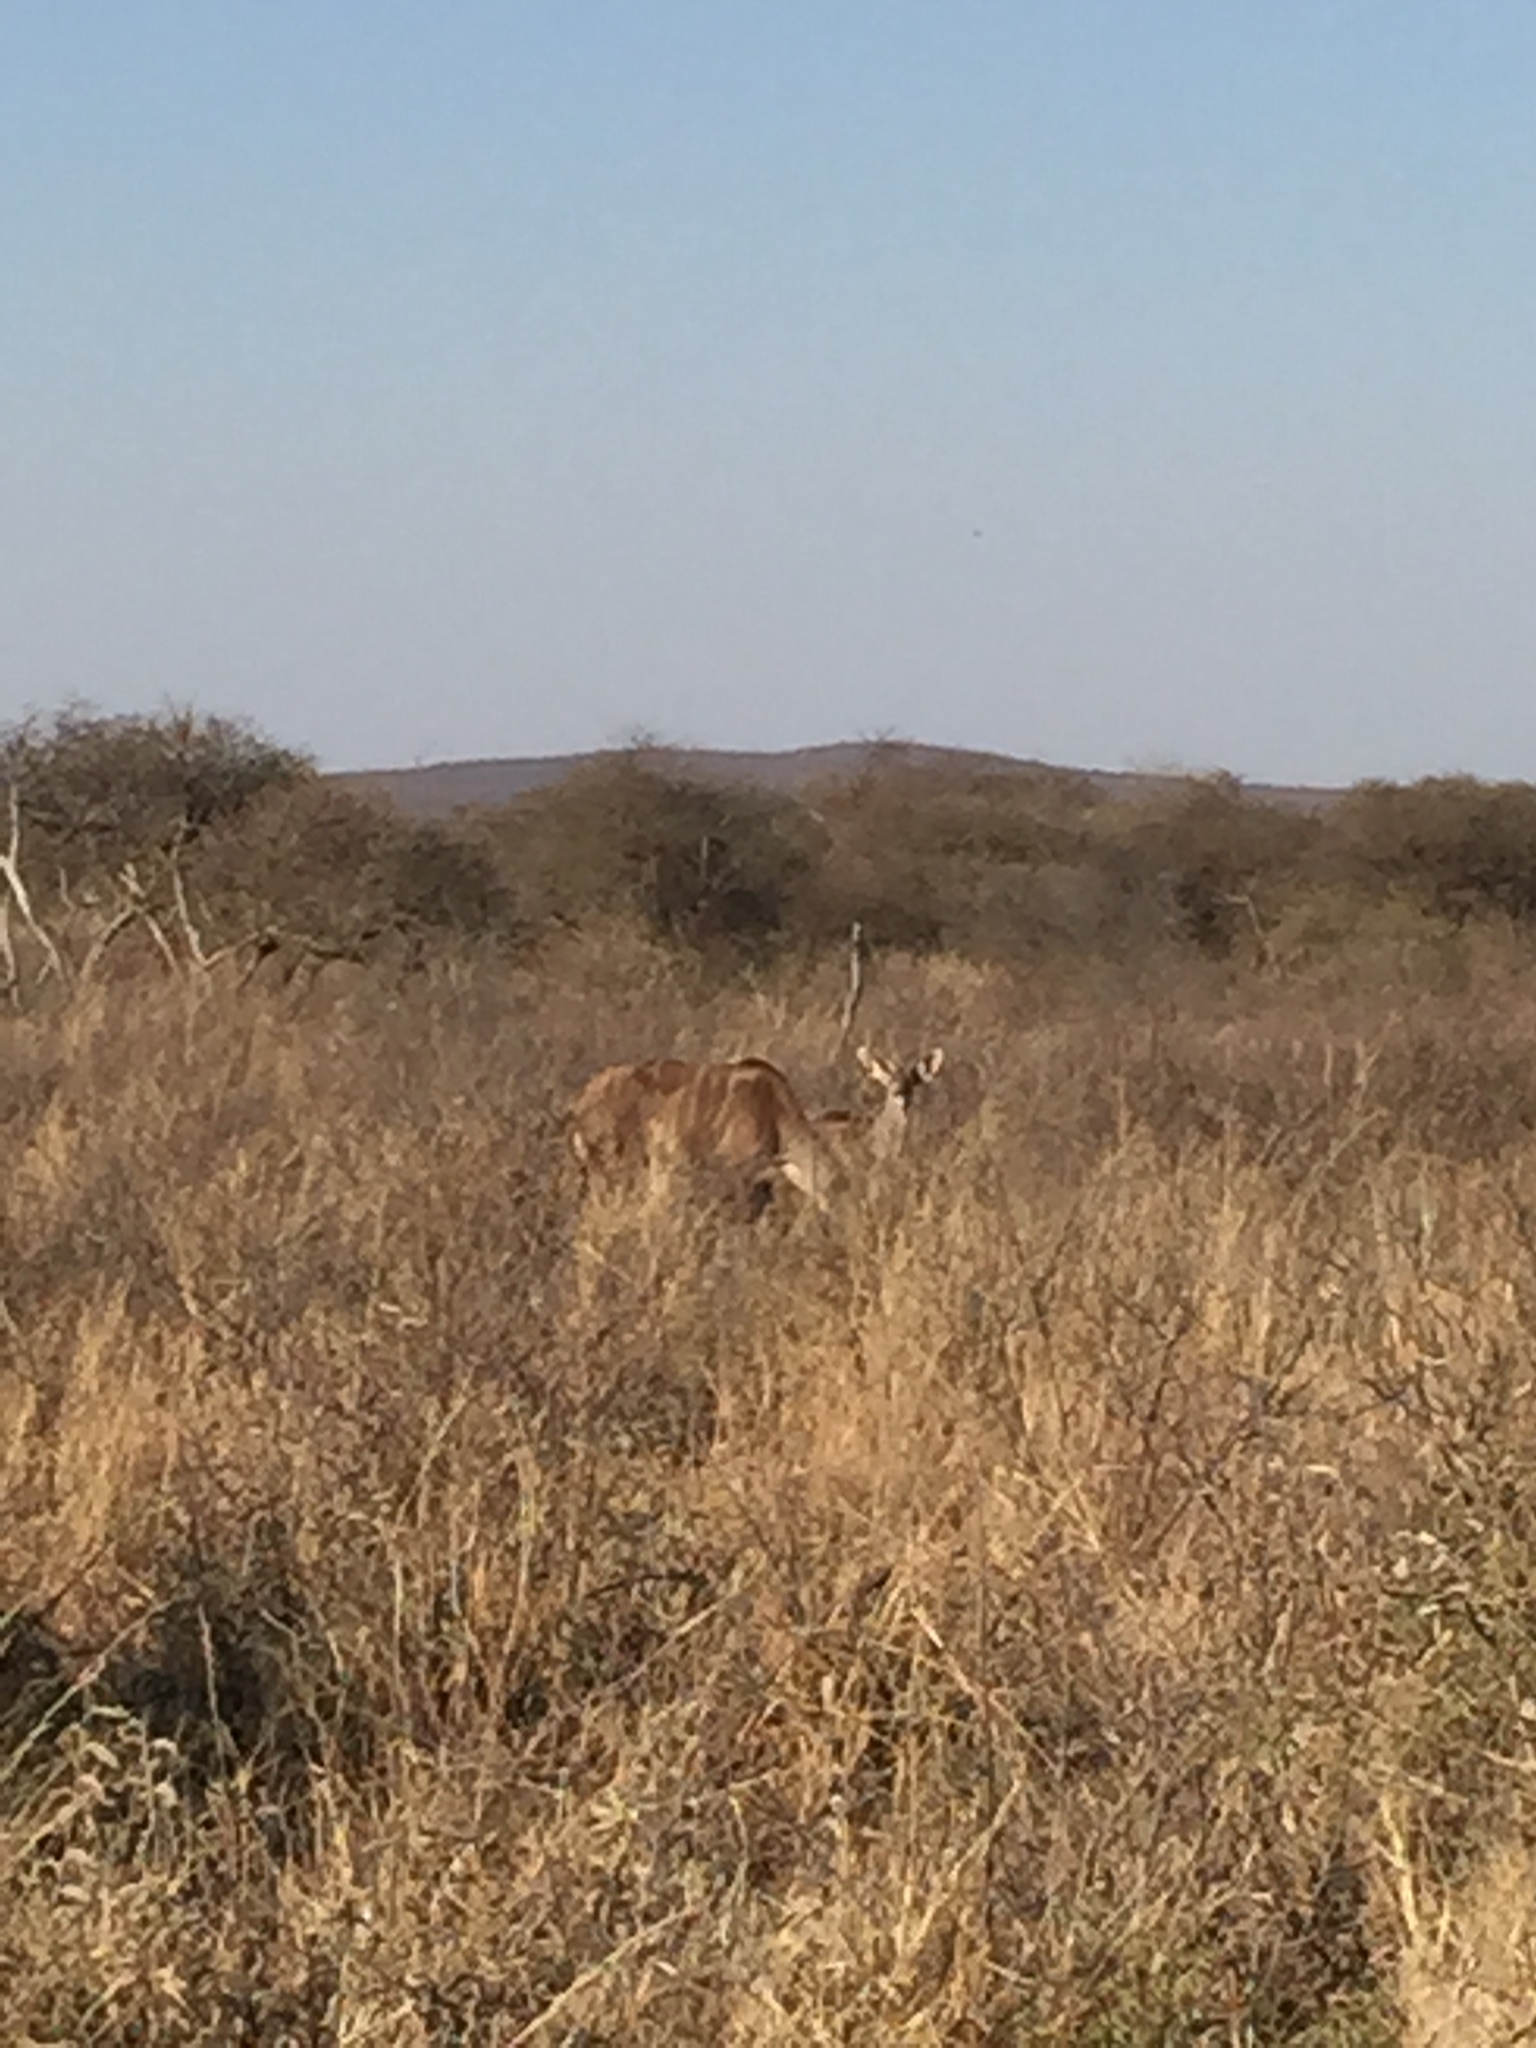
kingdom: Animalia
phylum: Chordata
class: Mammalia
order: Artiodactyla
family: Bovidae
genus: Tragelaphus
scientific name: Tragelaphus strepsiceros
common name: Greater kudu
